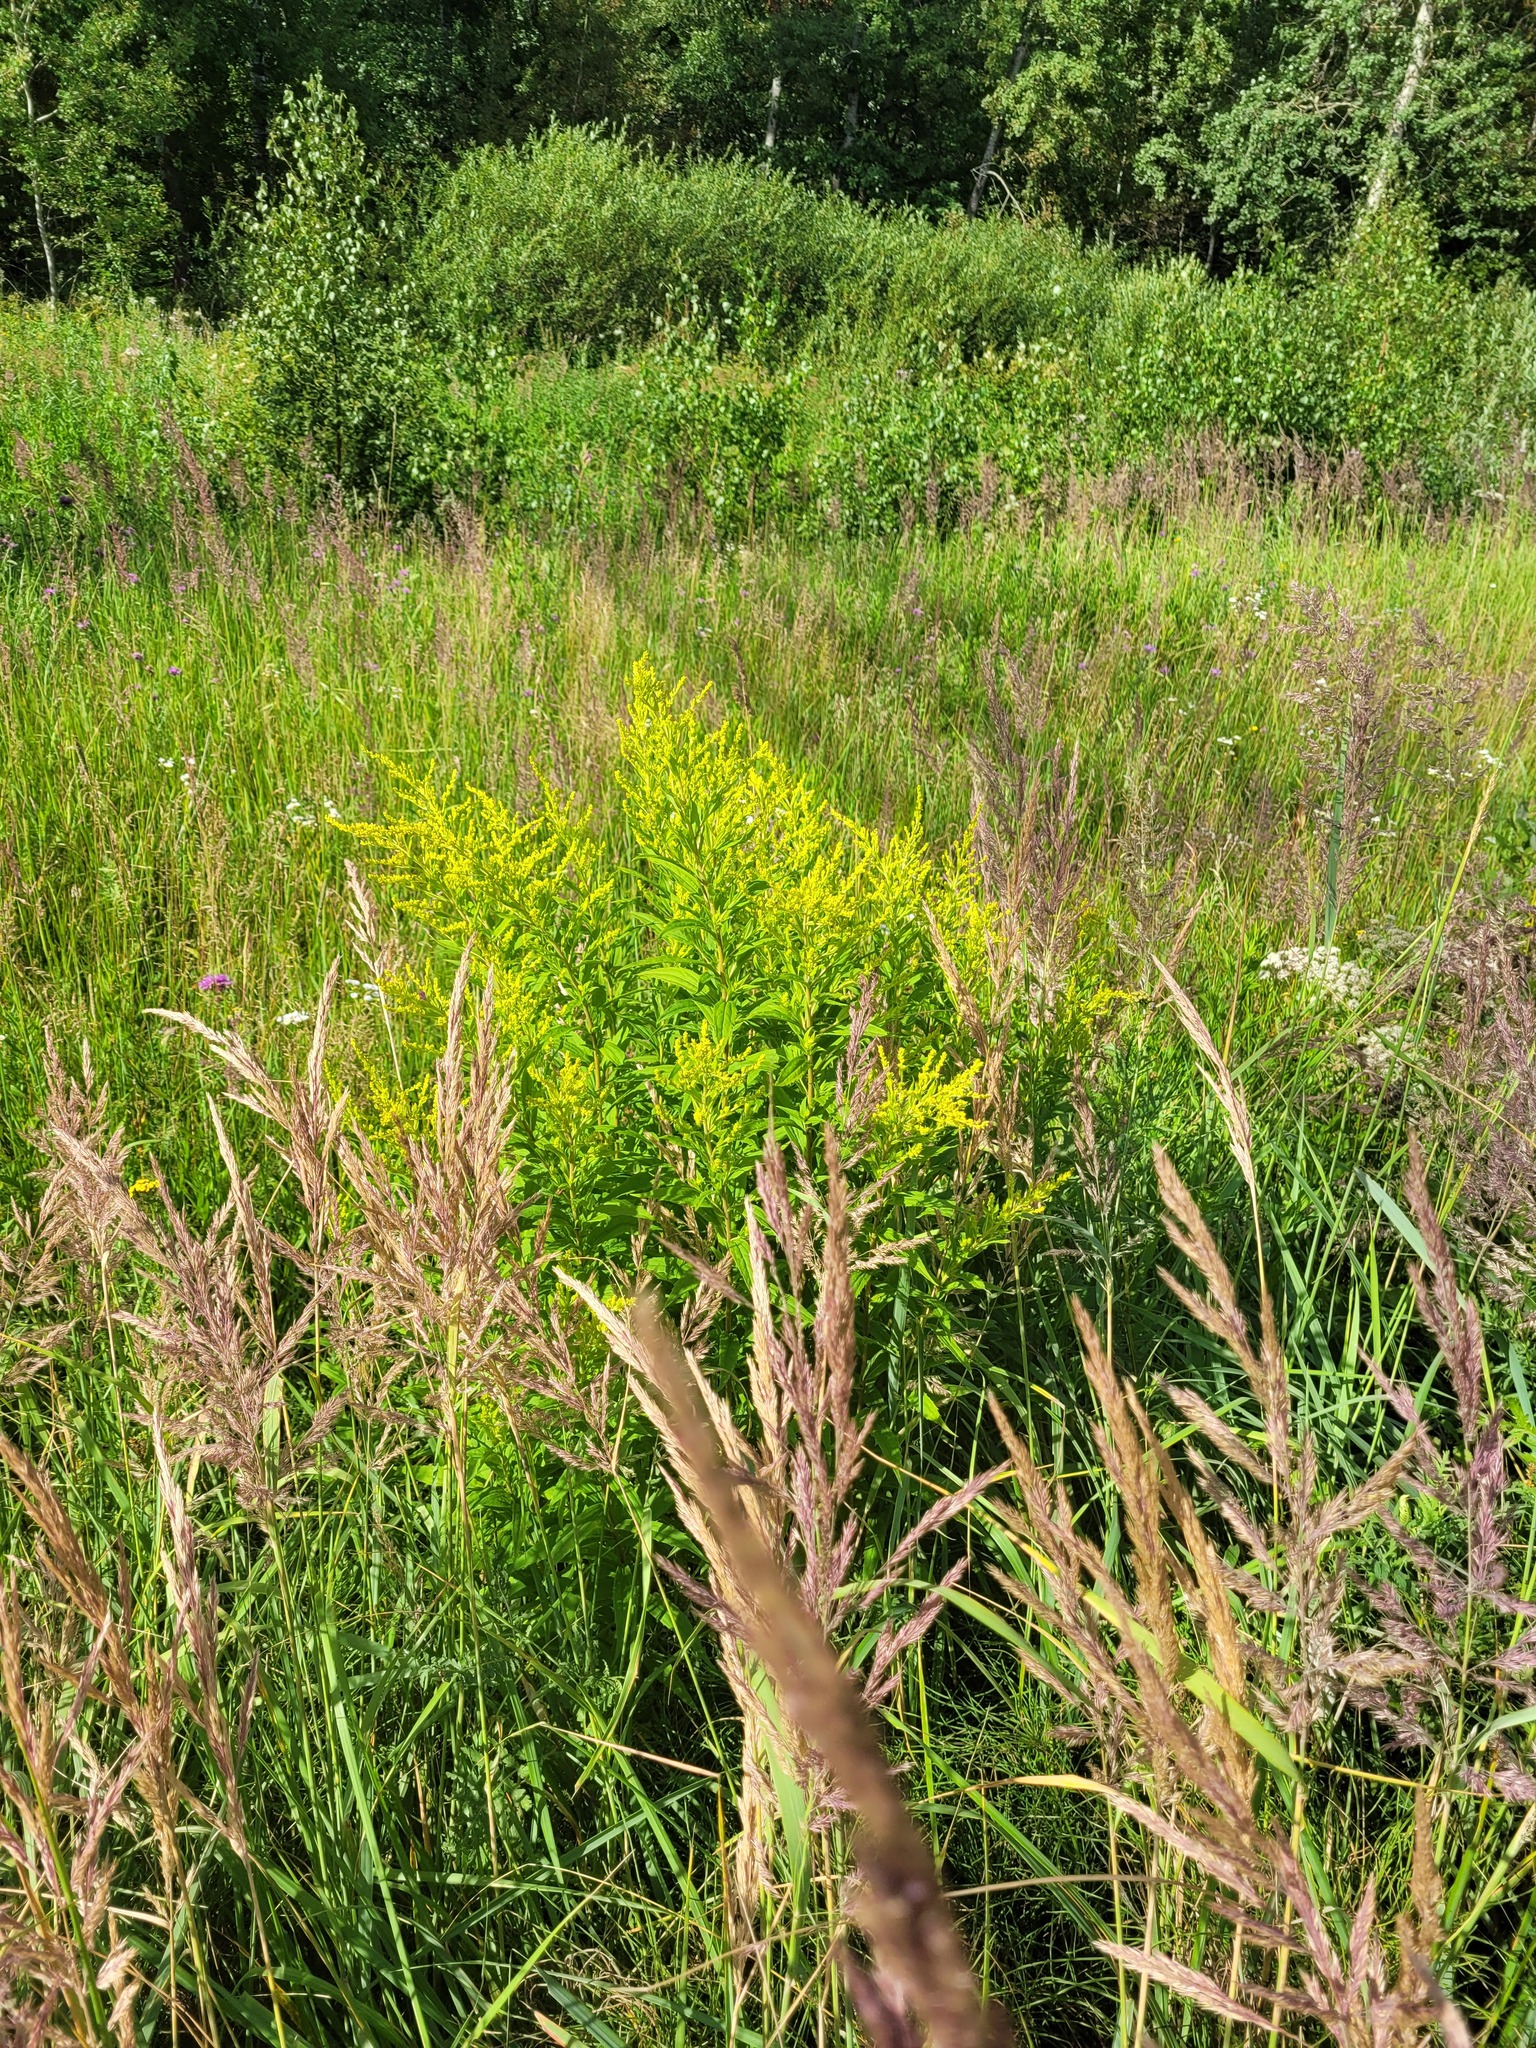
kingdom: Plantae
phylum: Tracheophyta
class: Magnoliopsida
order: Asterales
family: Asteraceae
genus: Solidago
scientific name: Solidago canadensis
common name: Canada goldenrod
